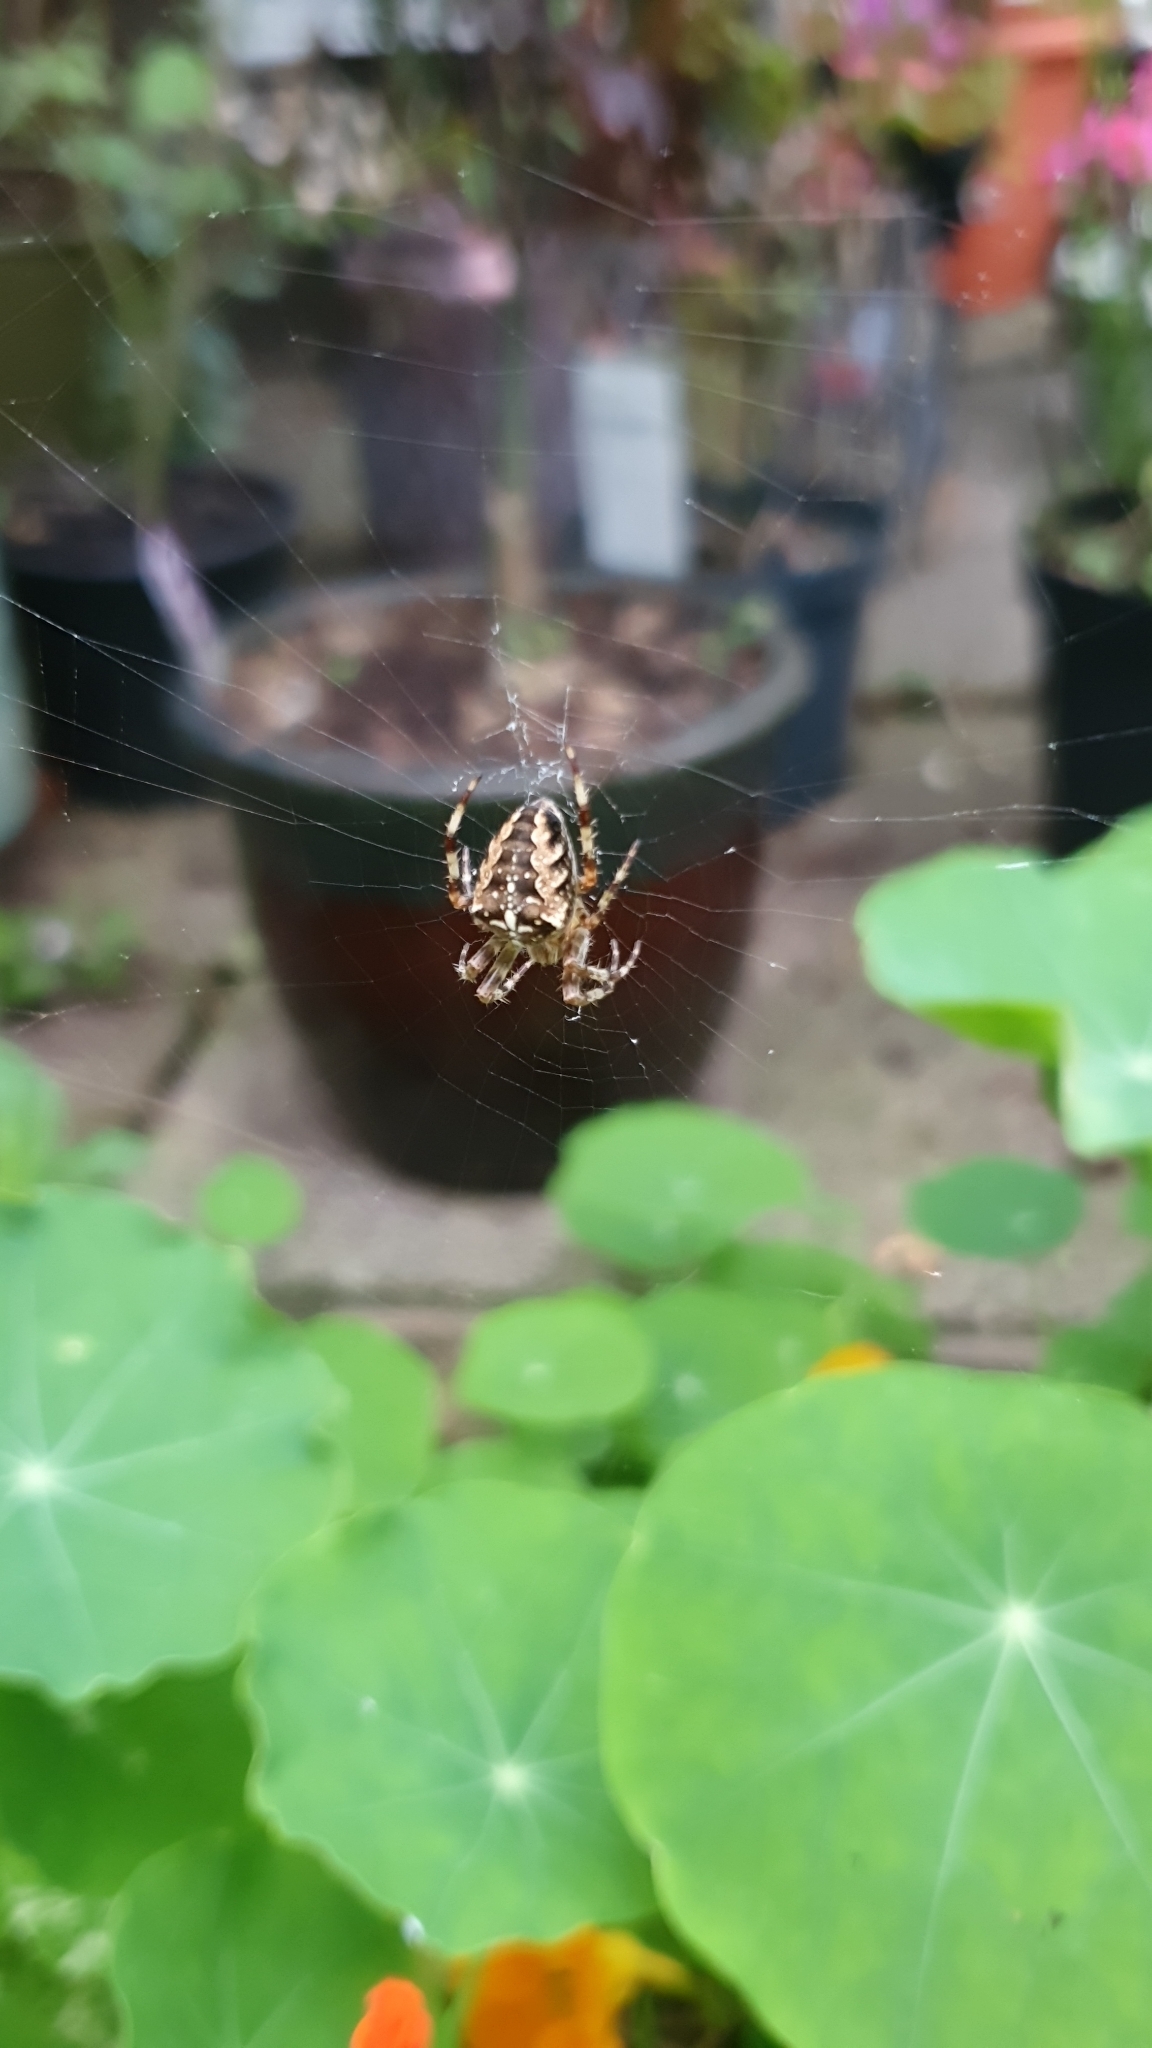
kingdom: Animalia
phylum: Arthropoda
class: Arachnida
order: Araneae
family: Araneidae
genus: Araneus
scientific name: Araneus diadematus
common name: Cross orbweaver
